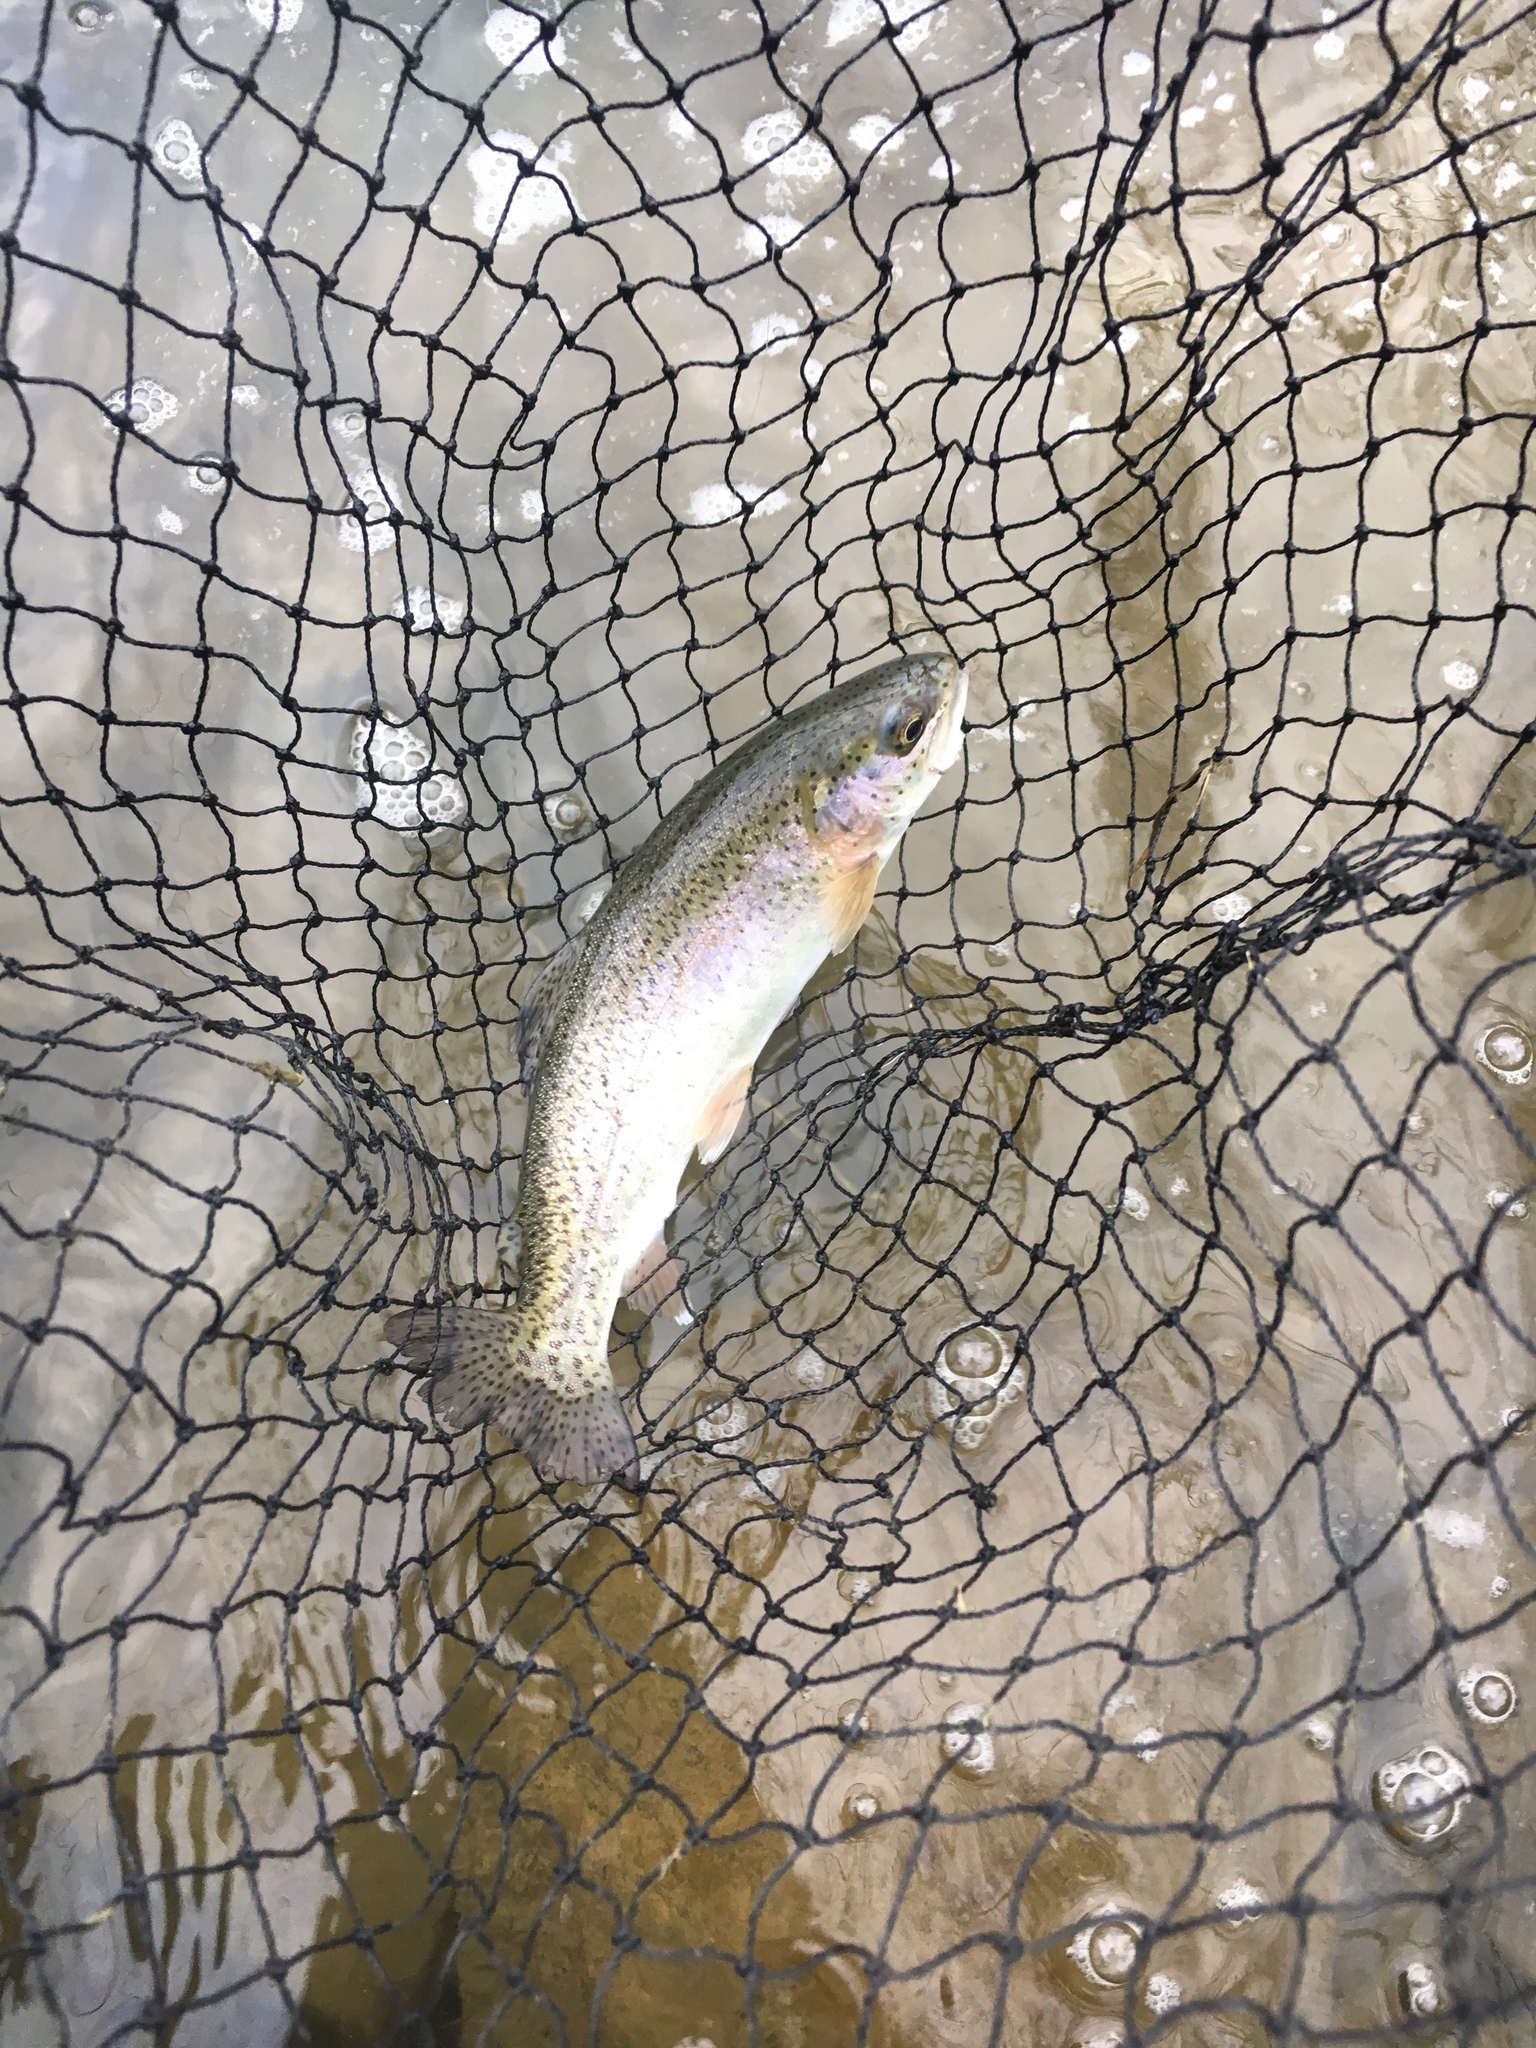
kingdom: Animalia
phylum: Chordata
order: Salmoniformes
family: Salmonidae
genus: Oncorhynchus
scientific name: Oncorhynchus mykiss
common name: Rainbow trout
